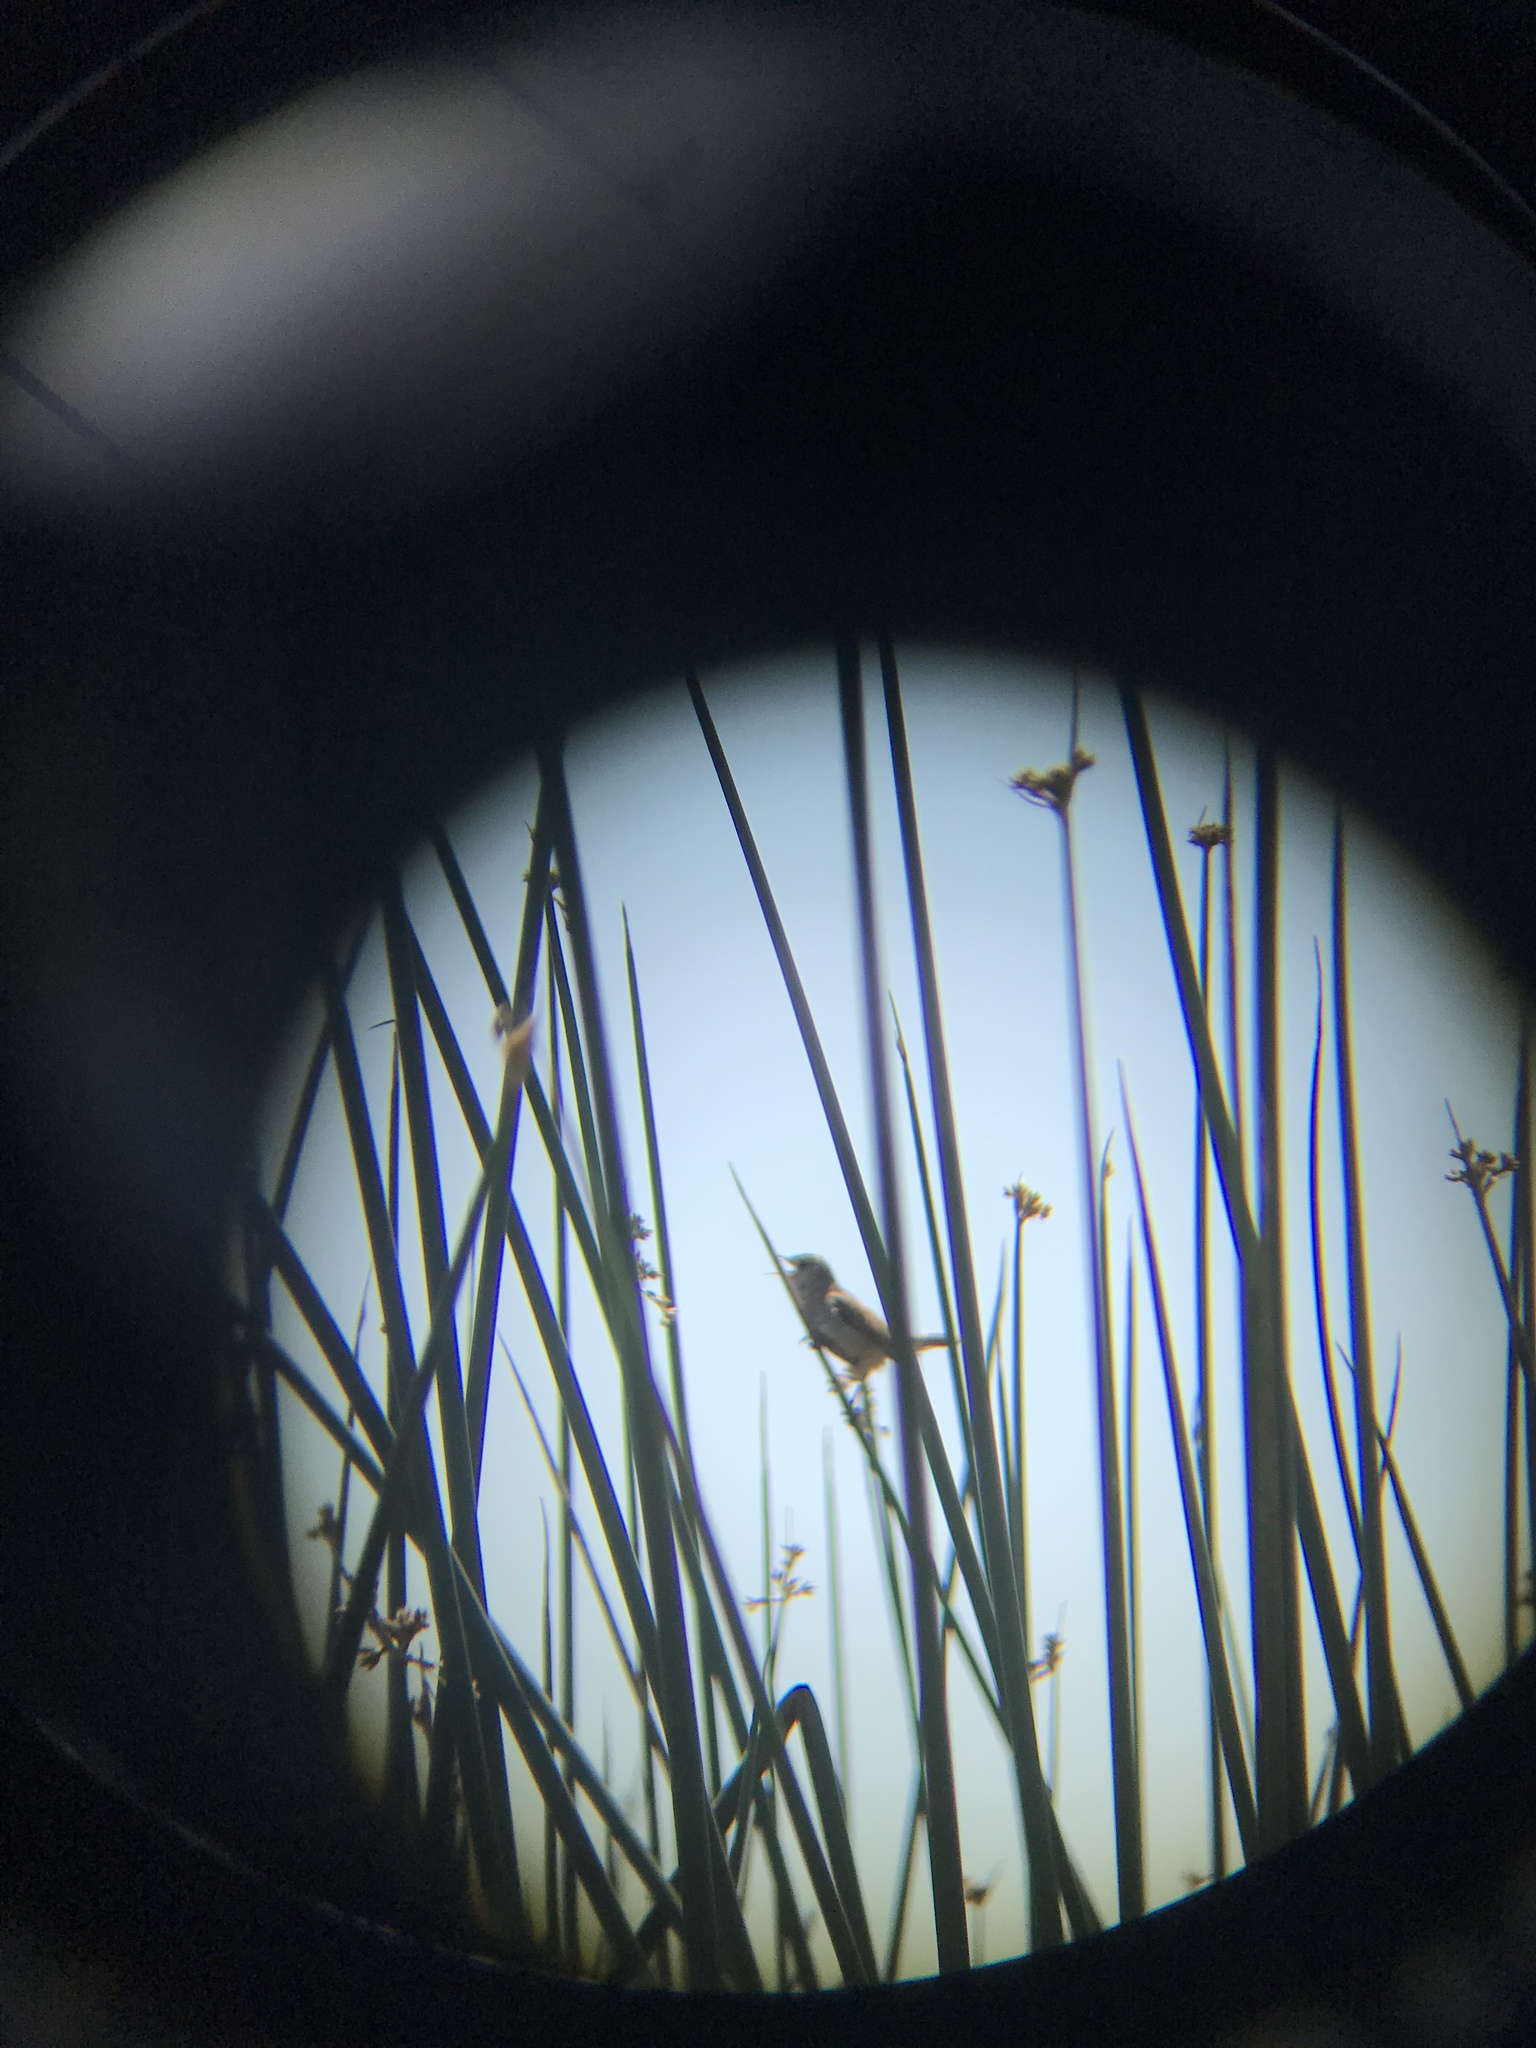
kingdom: Animalia
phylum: Chordata
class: Aves
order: Passeriformes
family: Troglodytidae
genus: Cistothorus
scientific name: Cistothorus palustris
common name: Marsh wren
